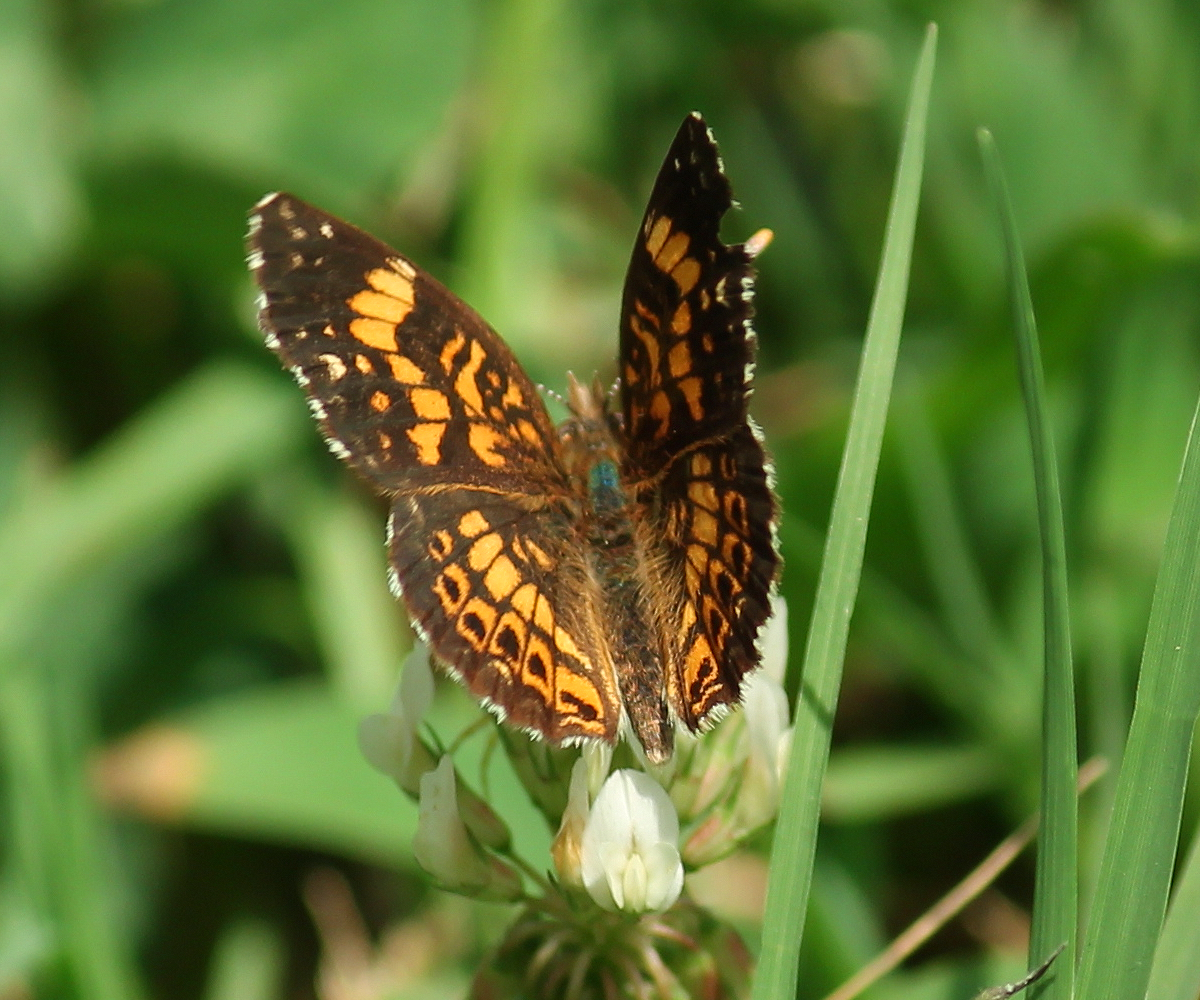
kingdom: Animalia
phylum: Arthropoda
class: Insecta
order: Lepidoptera
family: Nymphalidae
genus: Chlosyne
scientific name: Chlosyne gorgone
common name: Gorgone checkerspot
